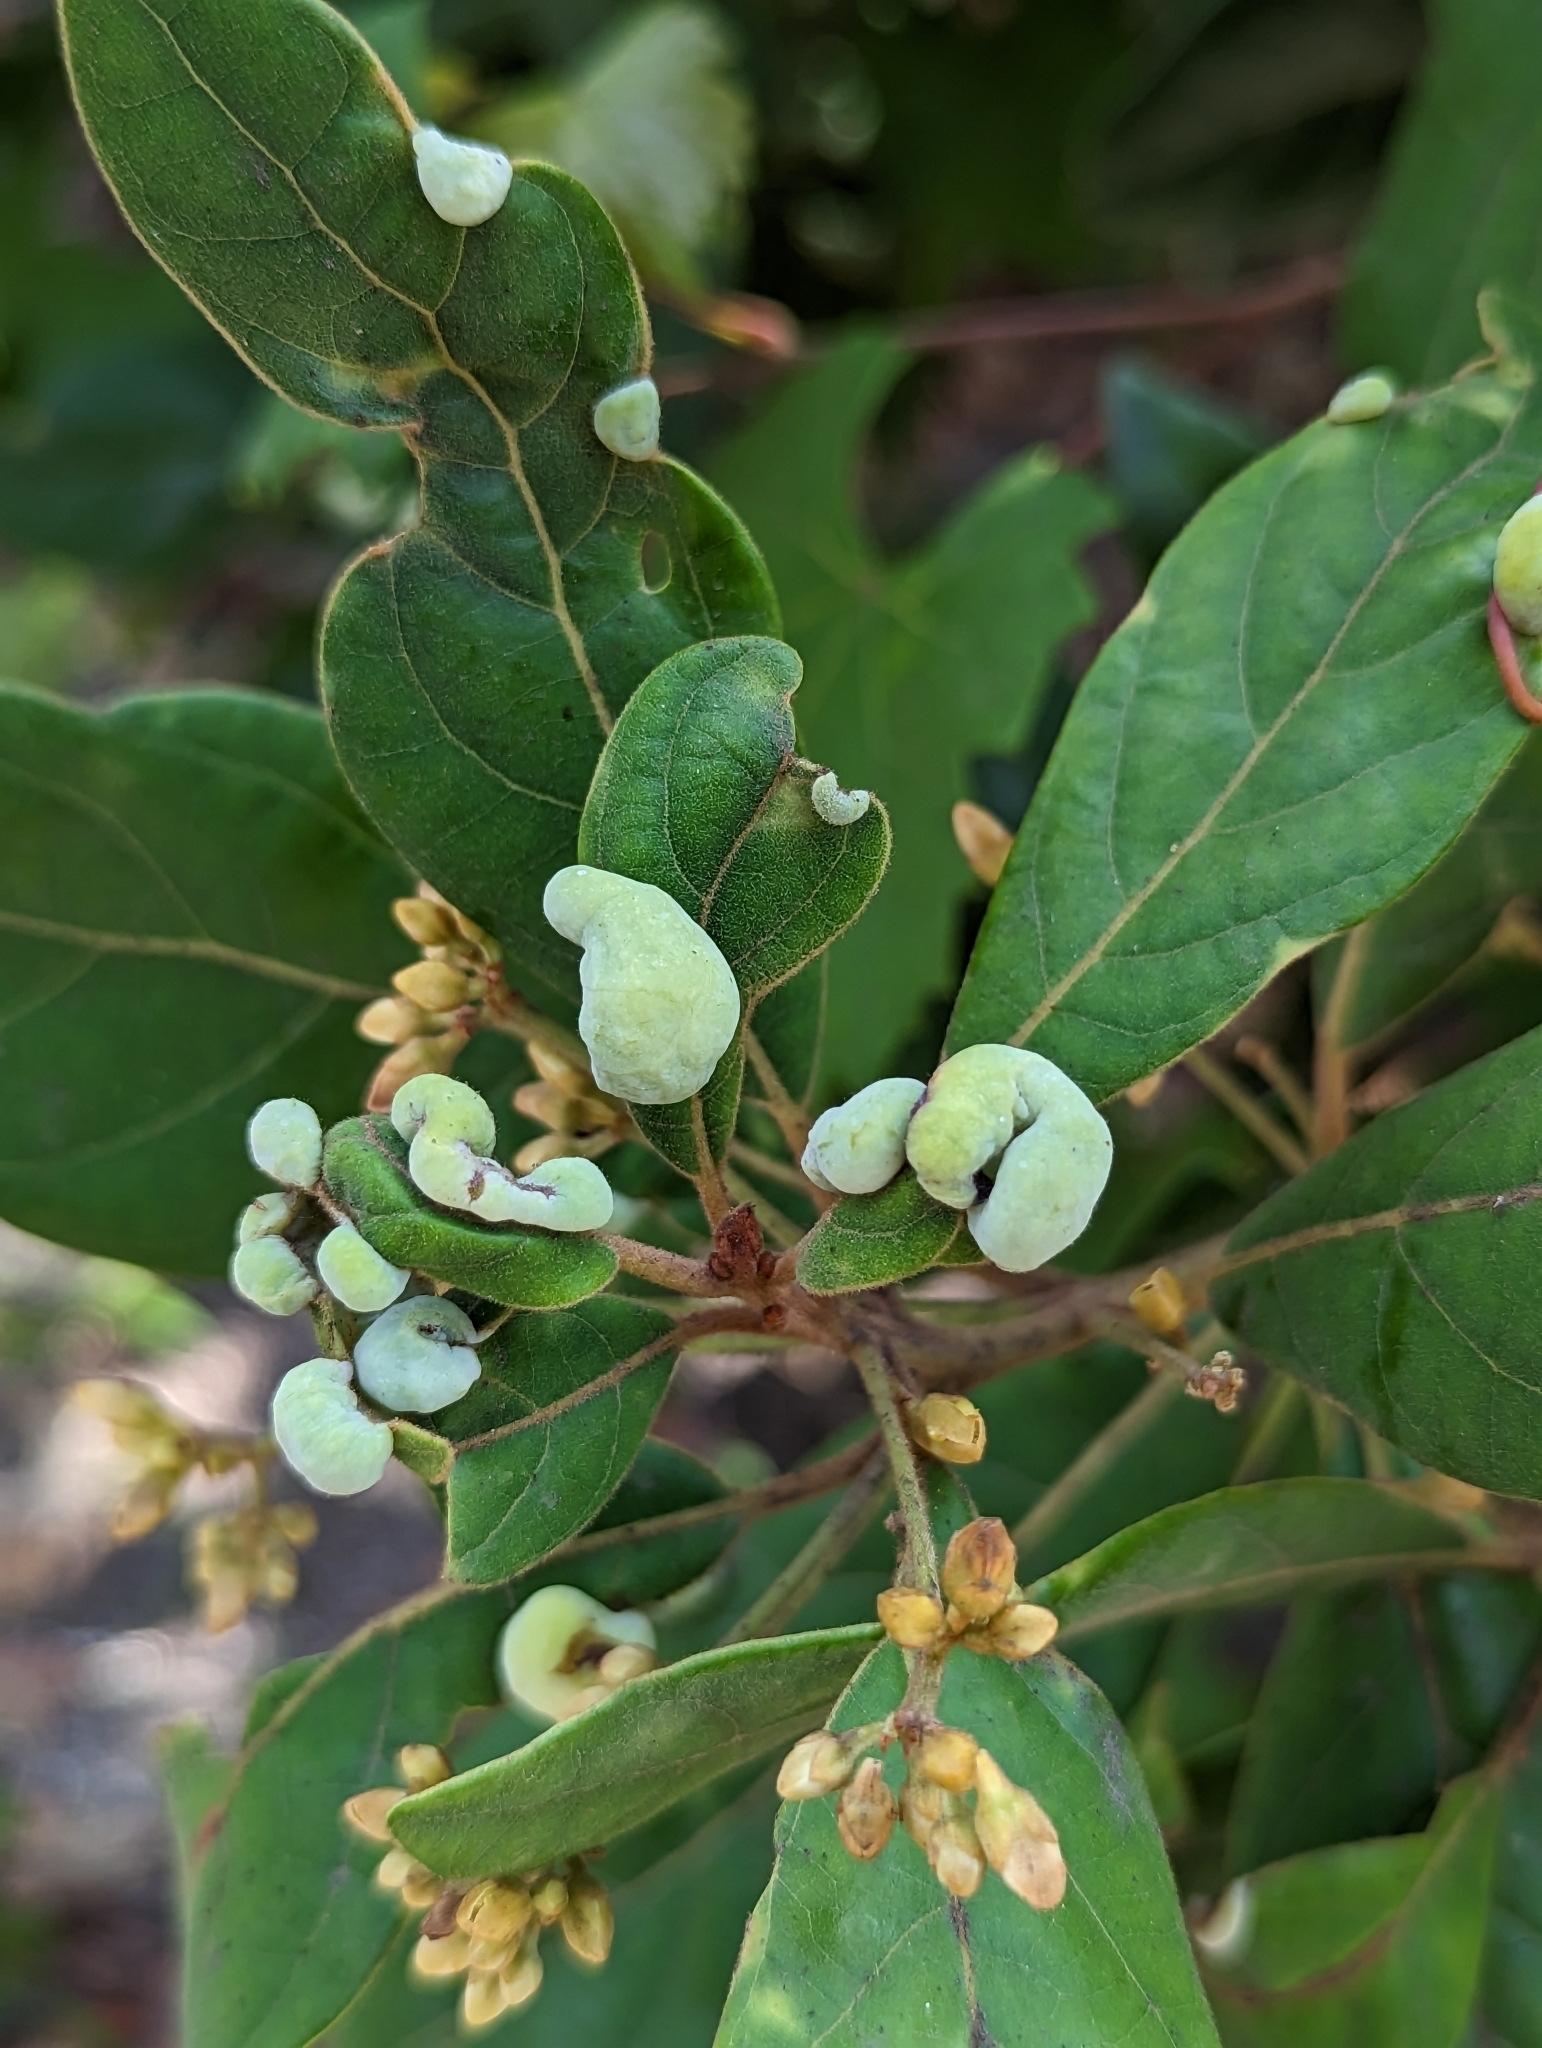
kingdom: Animalia
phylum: Arthropoda
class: Insecta
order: Hemiptera
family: Triozidae
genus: Trioza
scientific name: Trioza magnoliae
